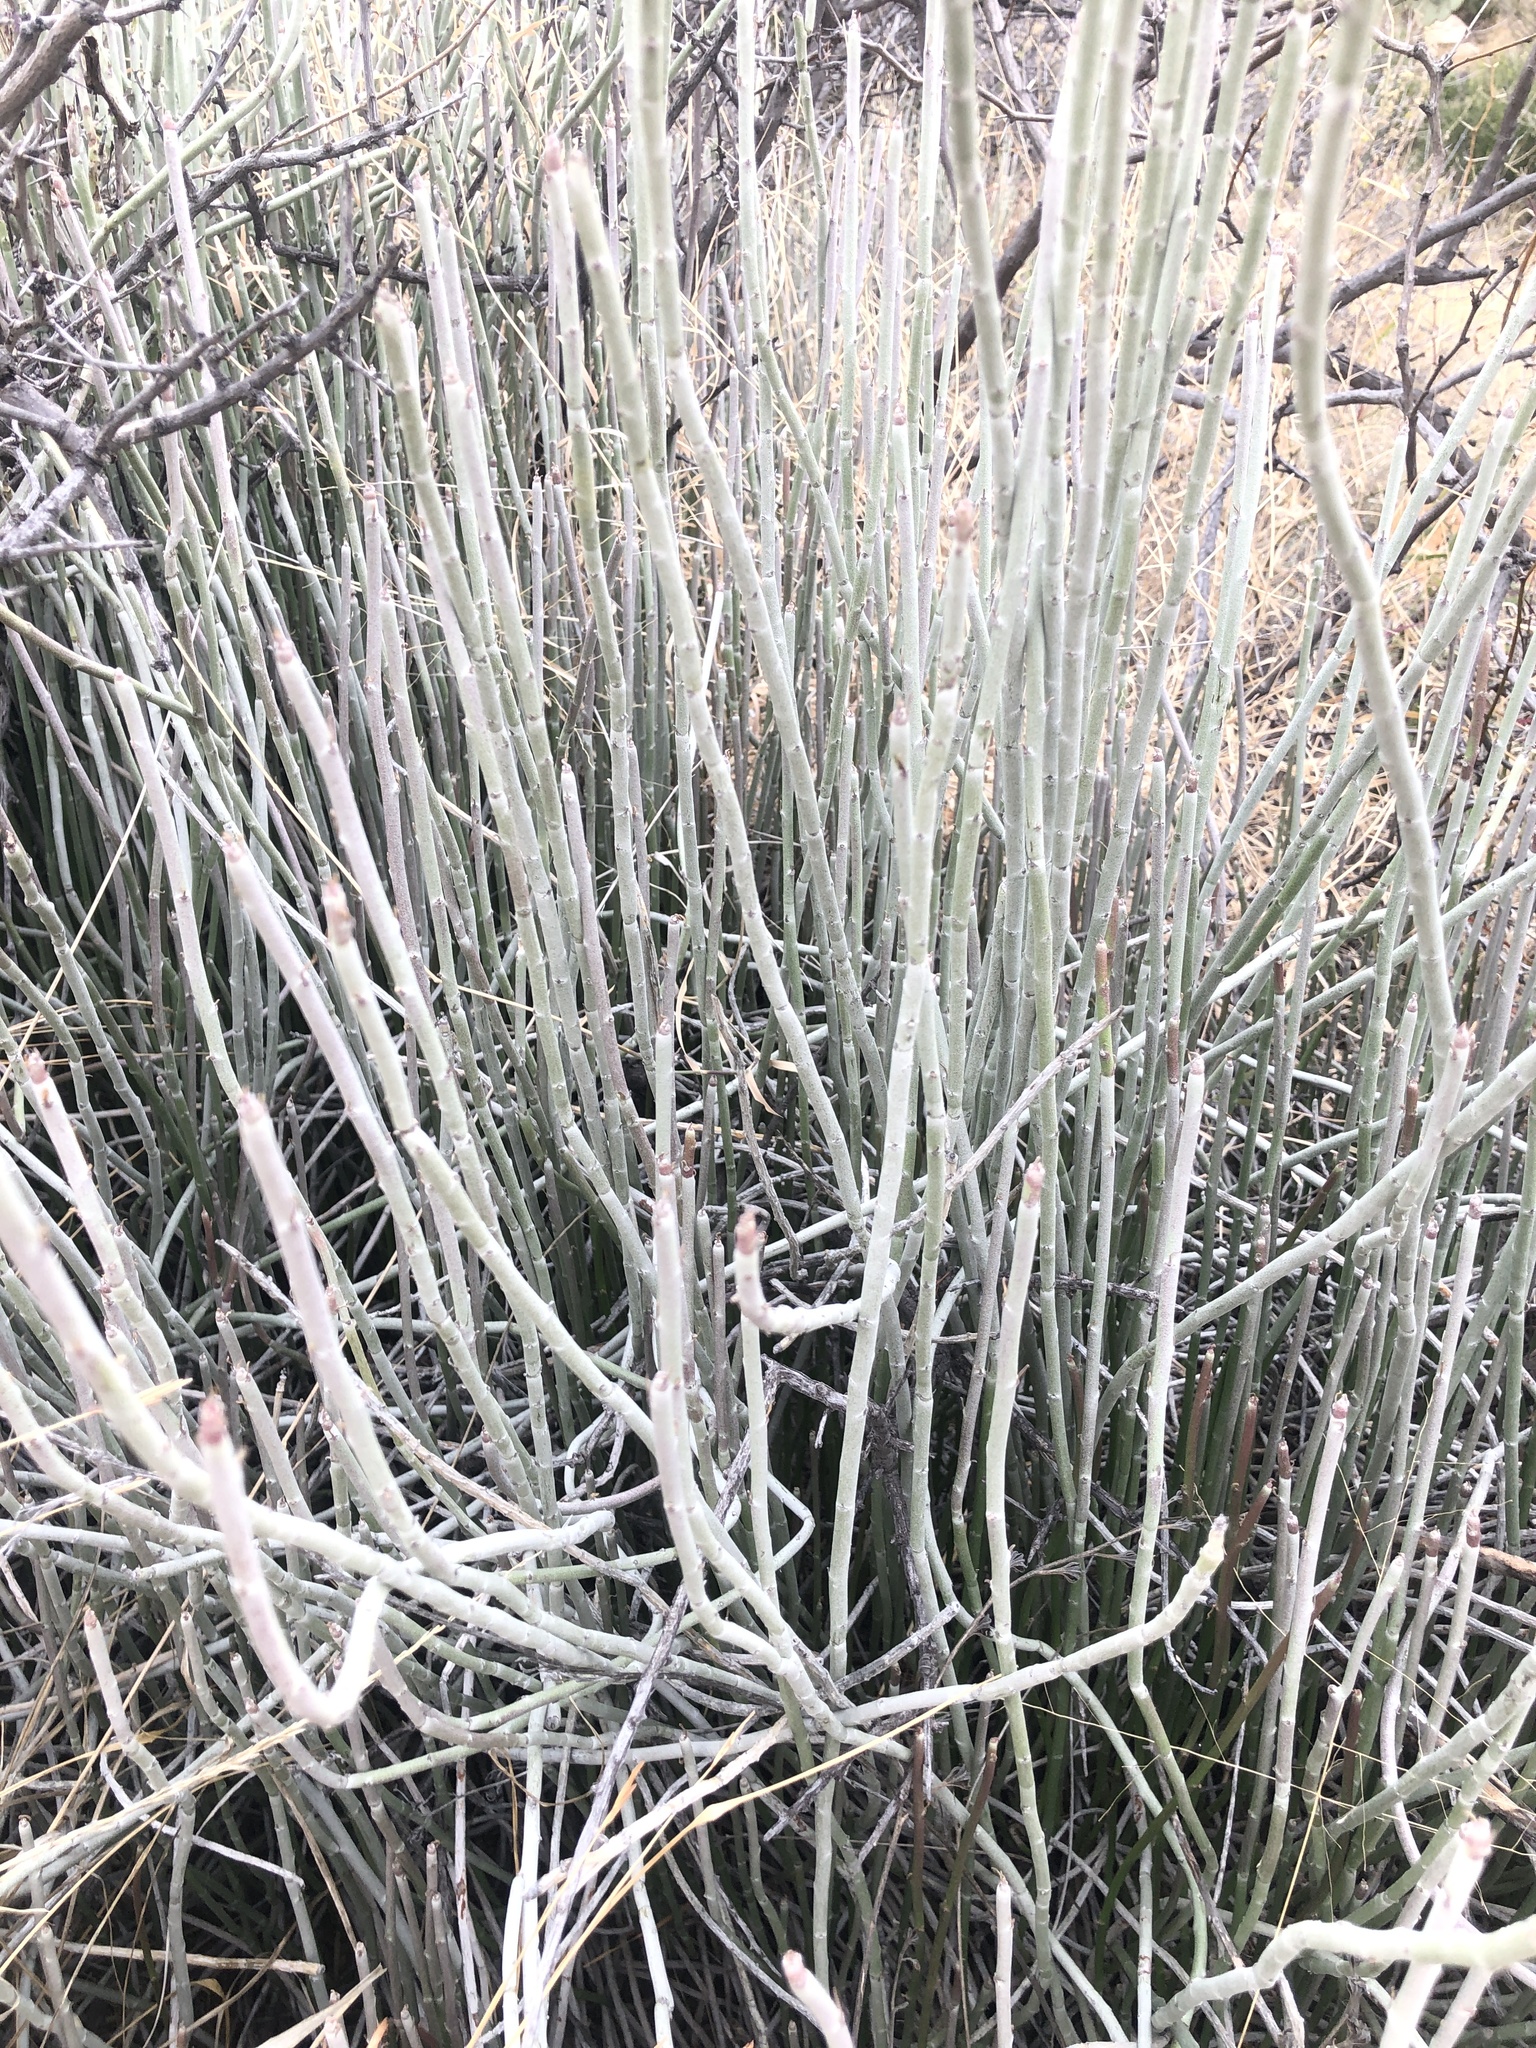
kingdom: Plantae
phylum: Tracheophyta
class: Magnoliopsida
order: Malpighiales
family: Euphorbiaceae
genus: Euphorbia
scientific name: Euphorbia antisyphilitica
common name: Candelilla
